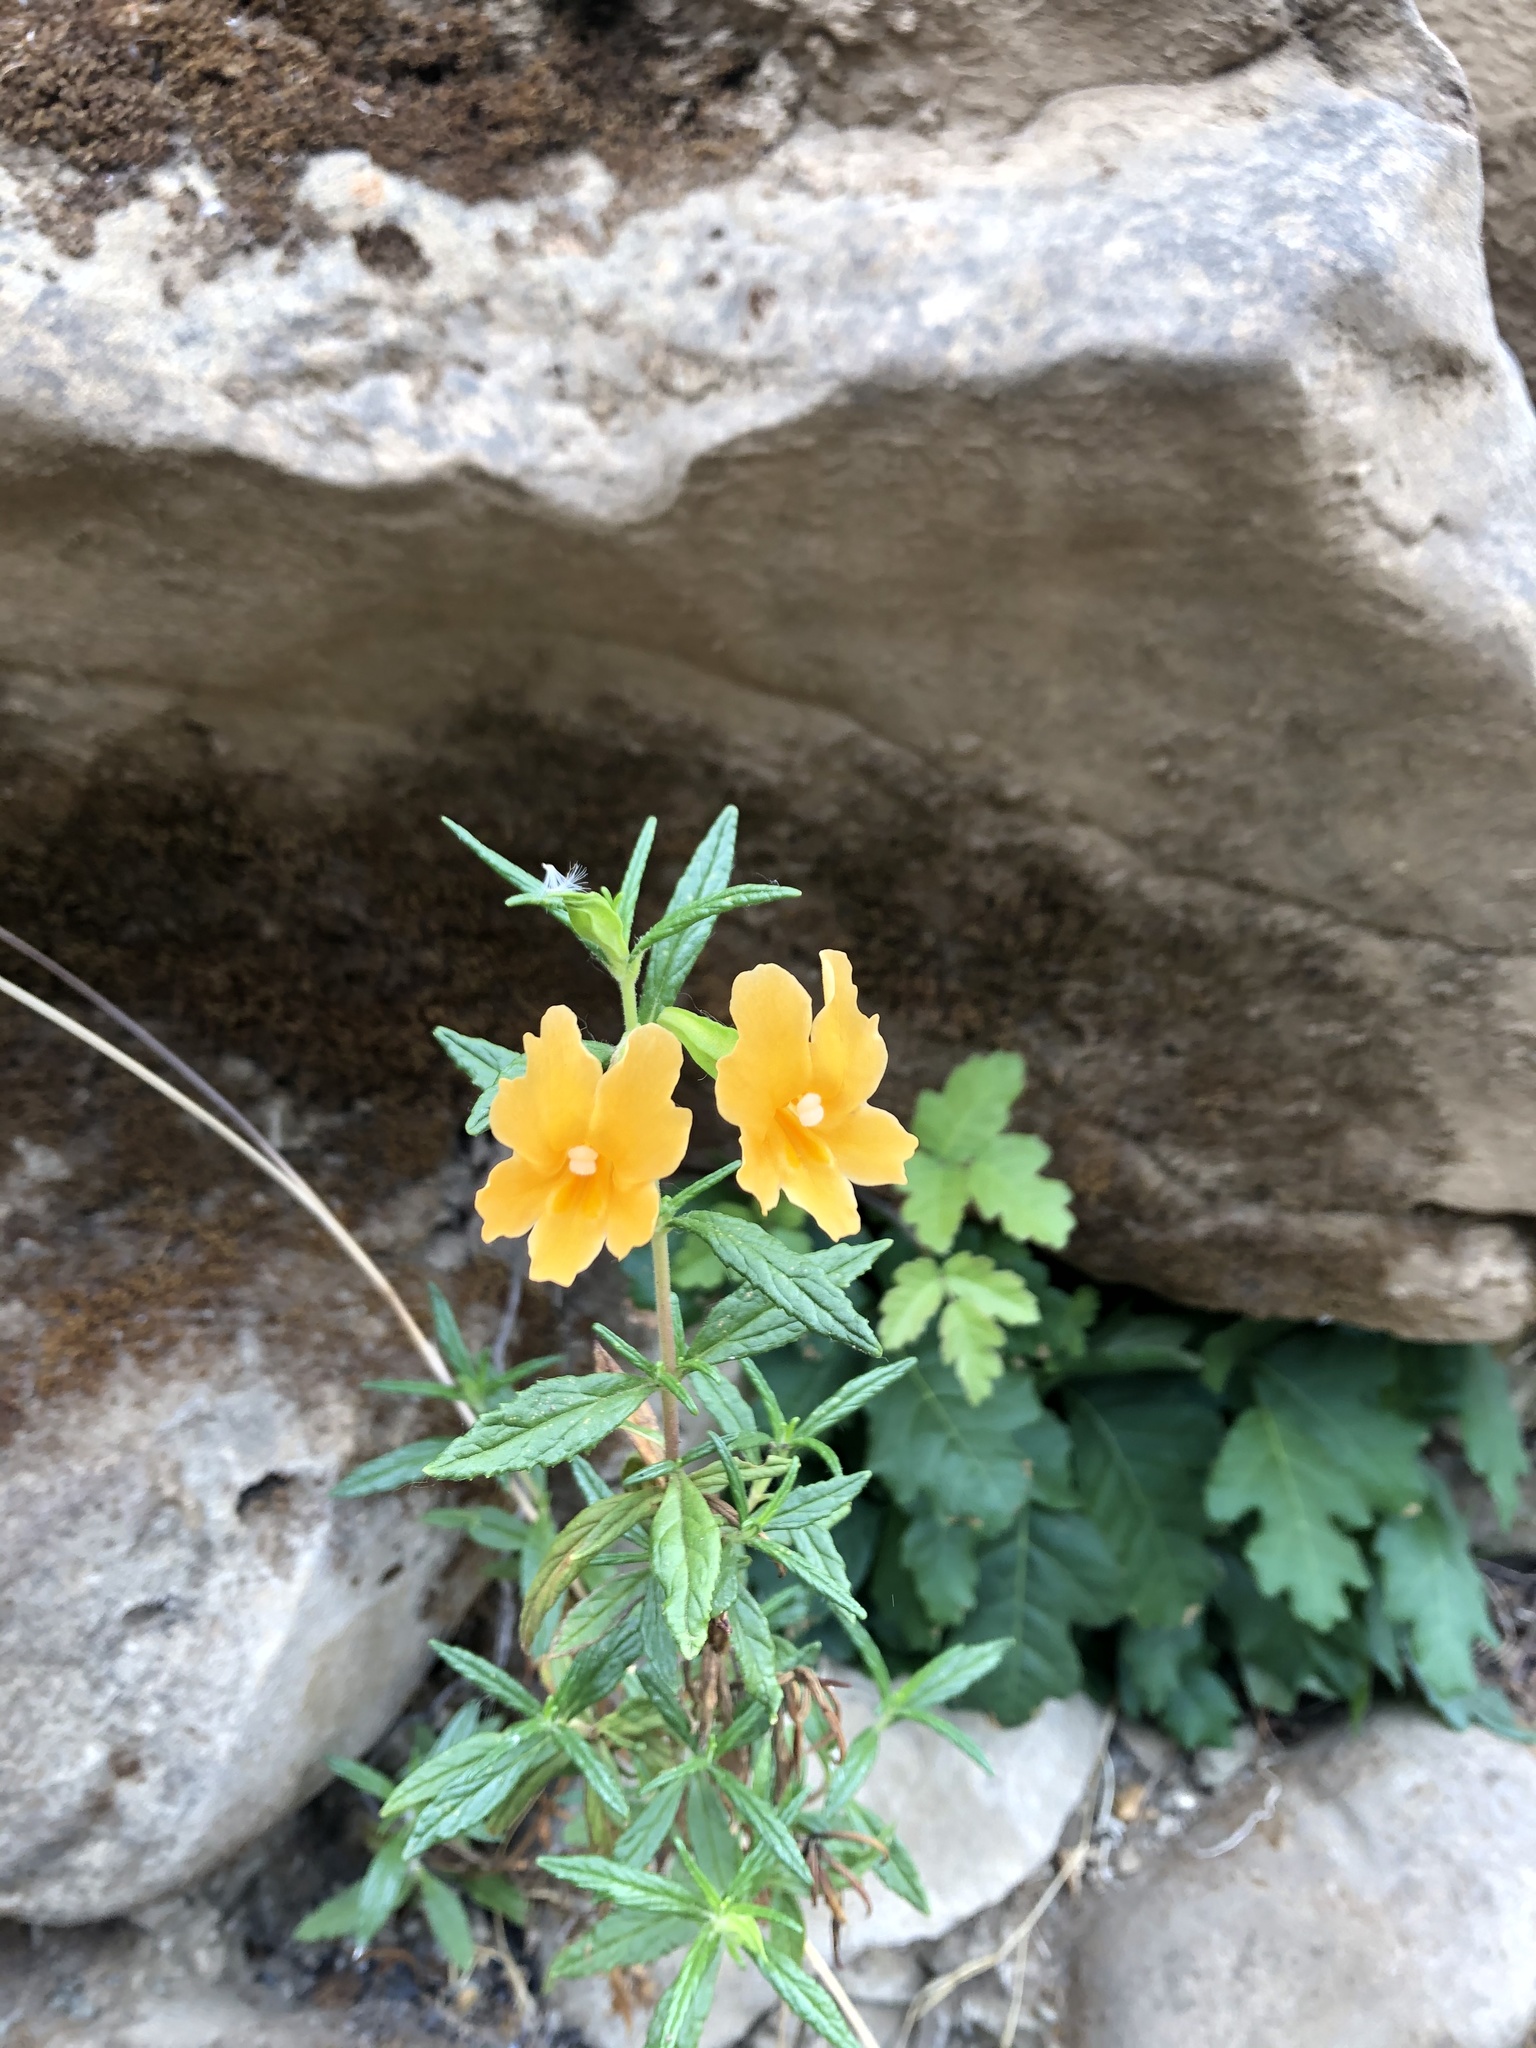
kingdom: Plantae
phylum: Tracheophyta
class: Magnoliopsida
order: Lamiales
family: Phrymaceae
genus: Diplacus
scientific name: Diplacus aurantiacus
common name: Bush monkey-flower
